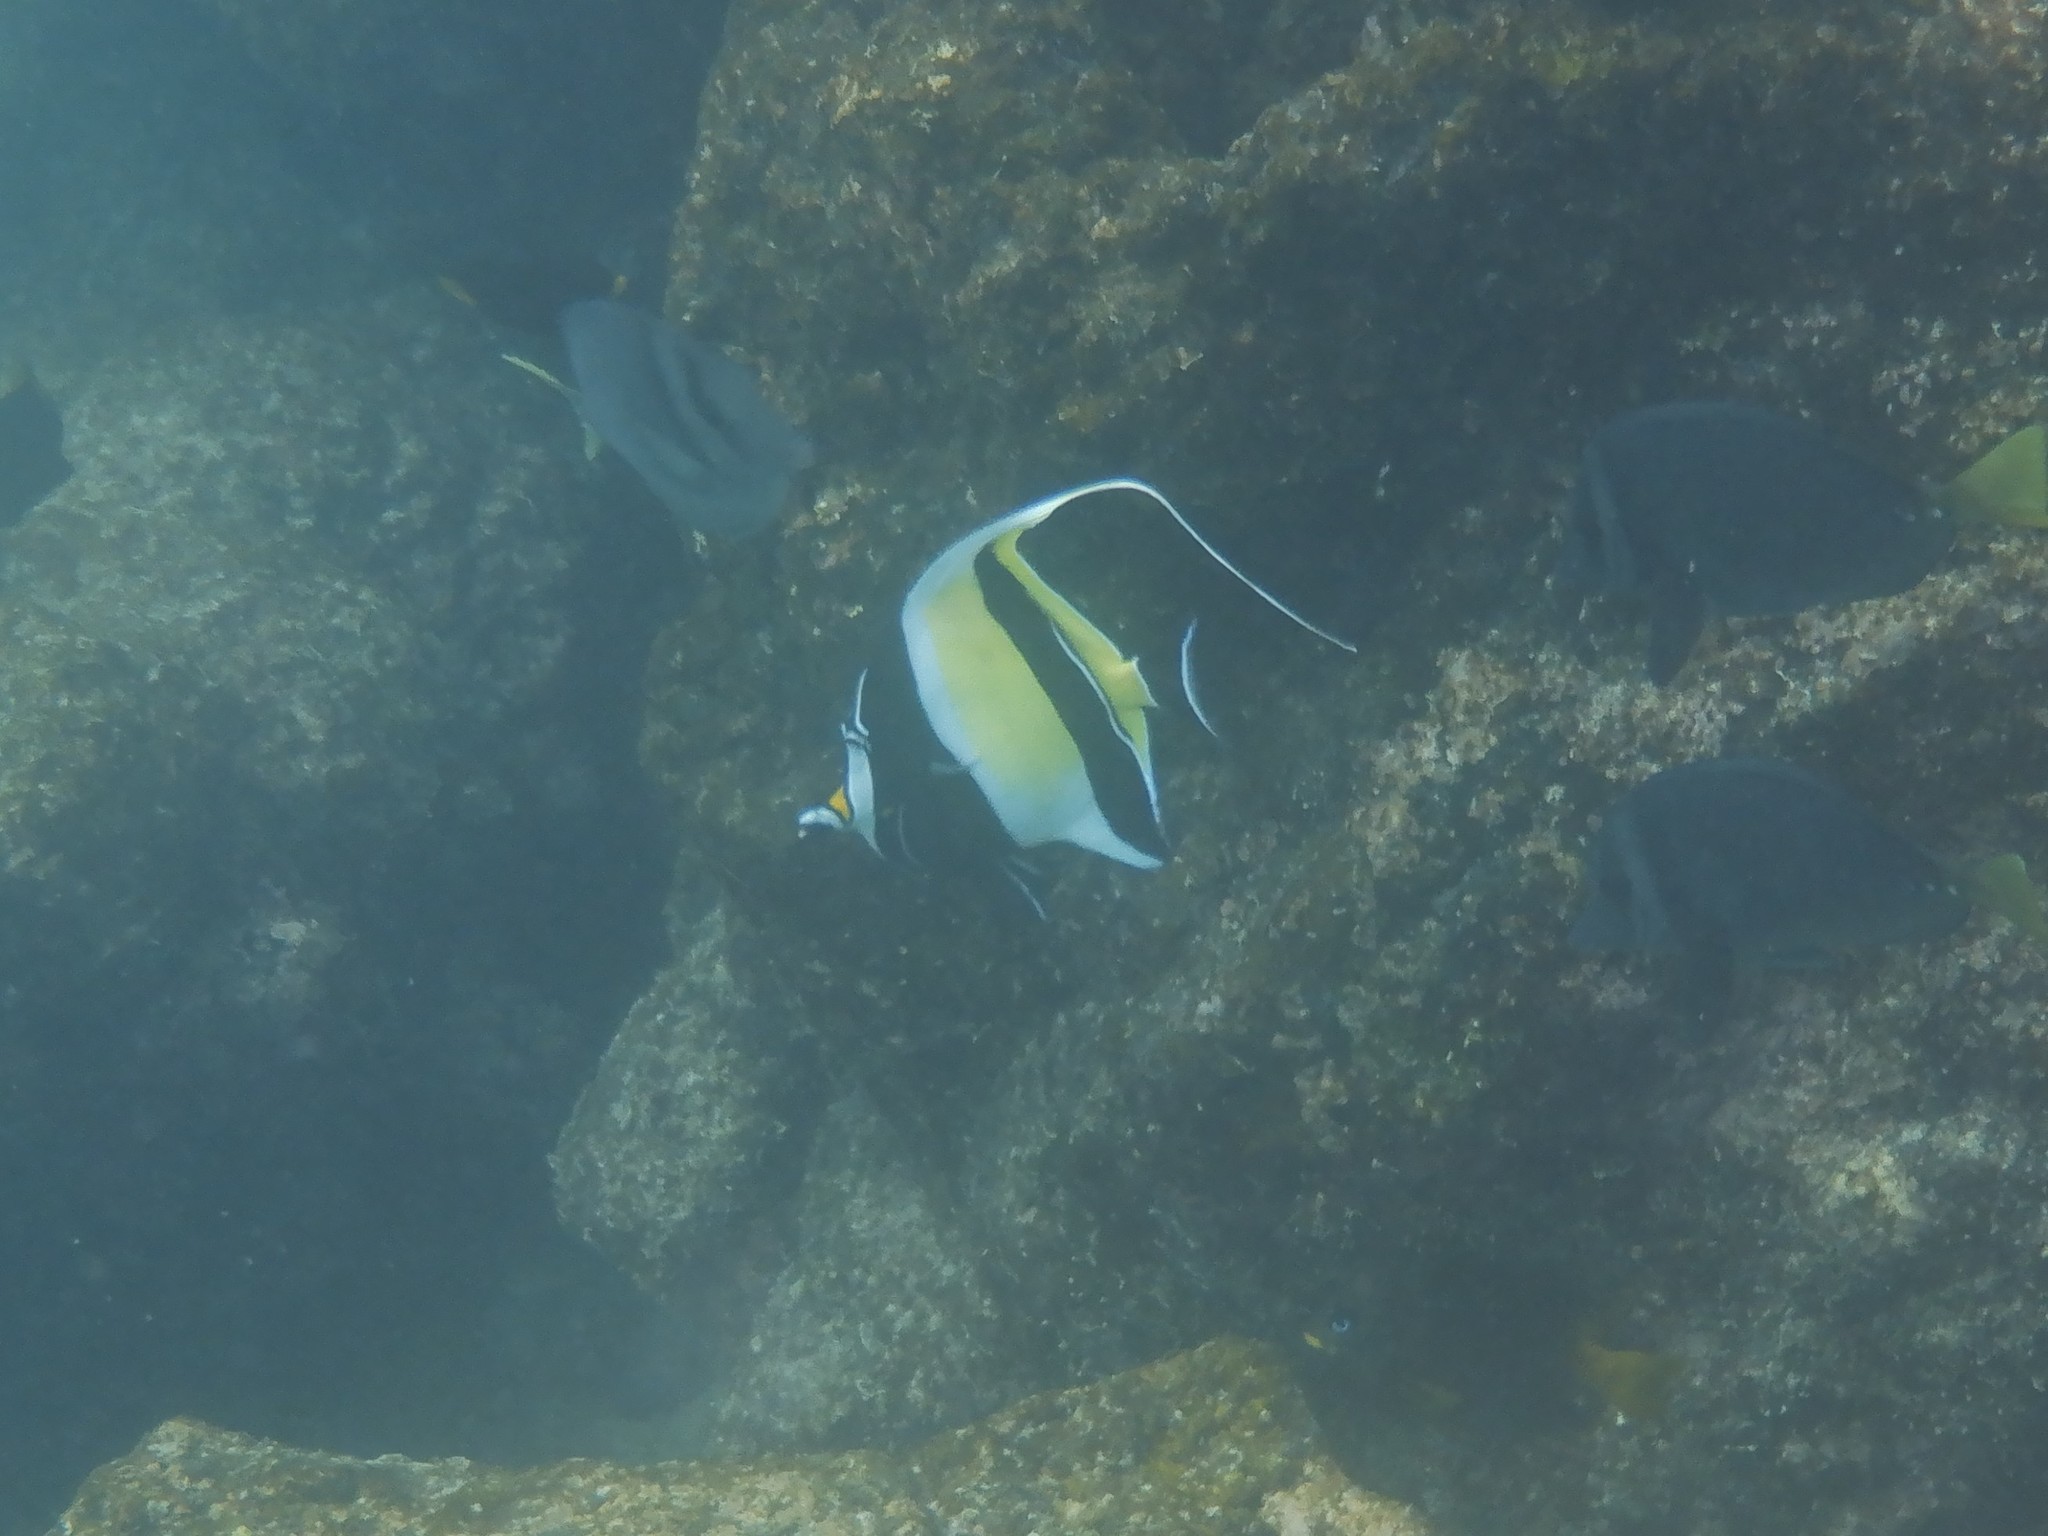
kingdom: Animalia
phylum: Chordata
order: Perciformes
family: Zanclidae
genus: Zanclus
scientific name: Zanclus cornutus
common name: Moorish idol
